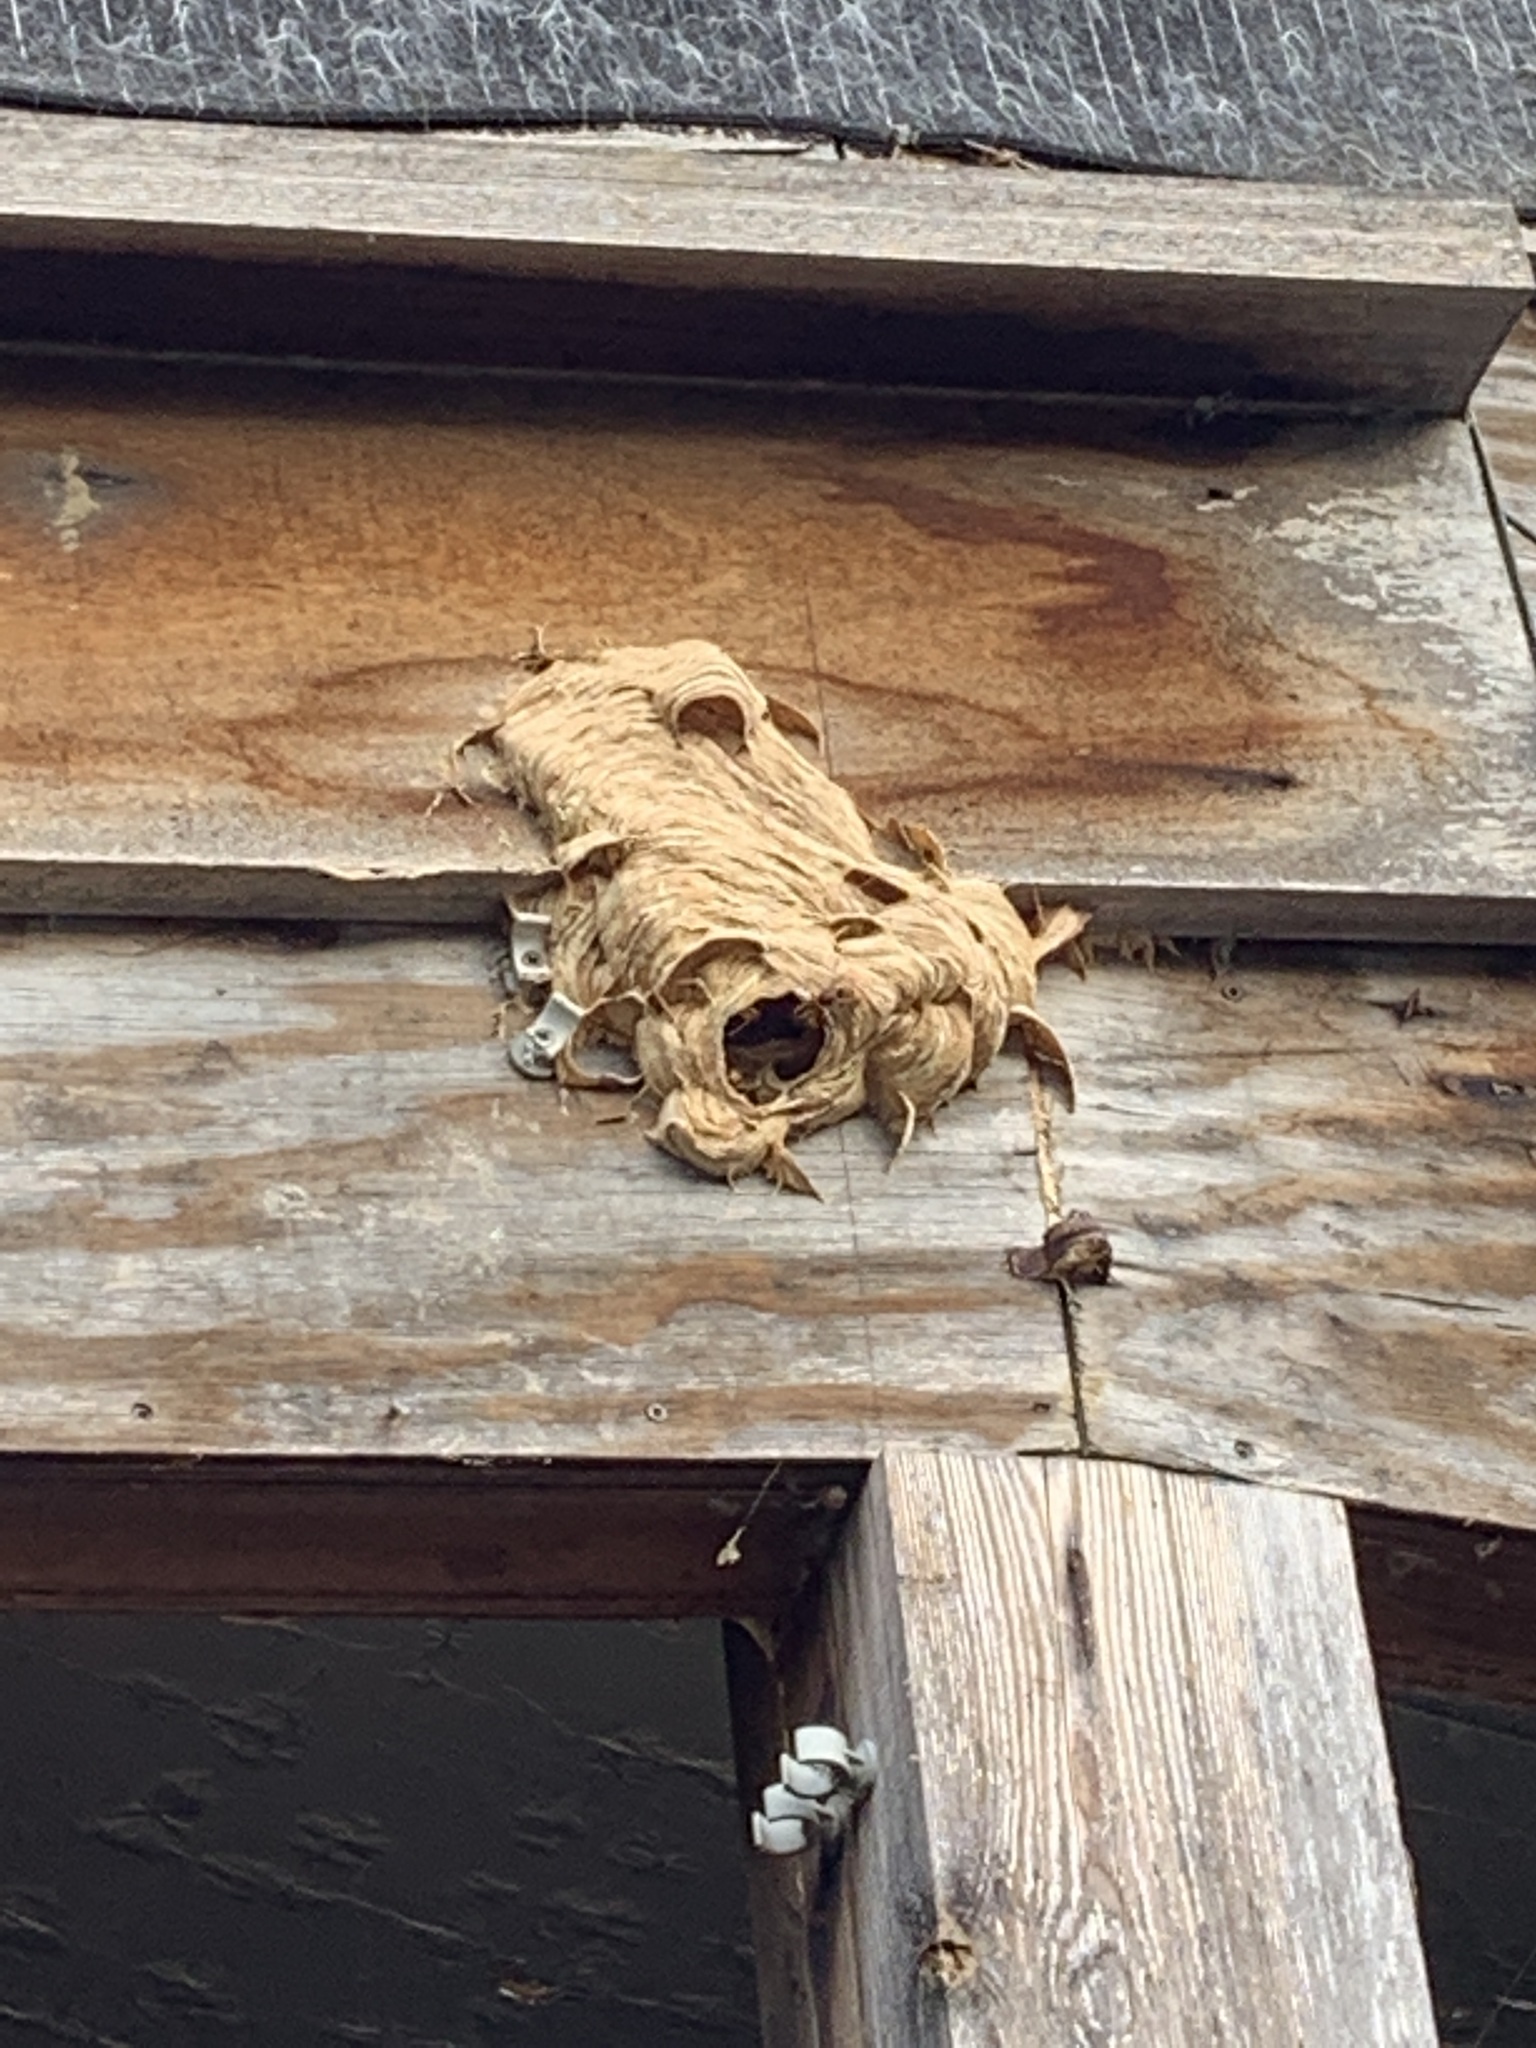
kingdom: Animalia
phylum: Arthropoda
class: Insecta
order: Hymenoptera
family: Vespidae
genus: Vespa
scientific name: Vespa crabro
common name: Hornet
